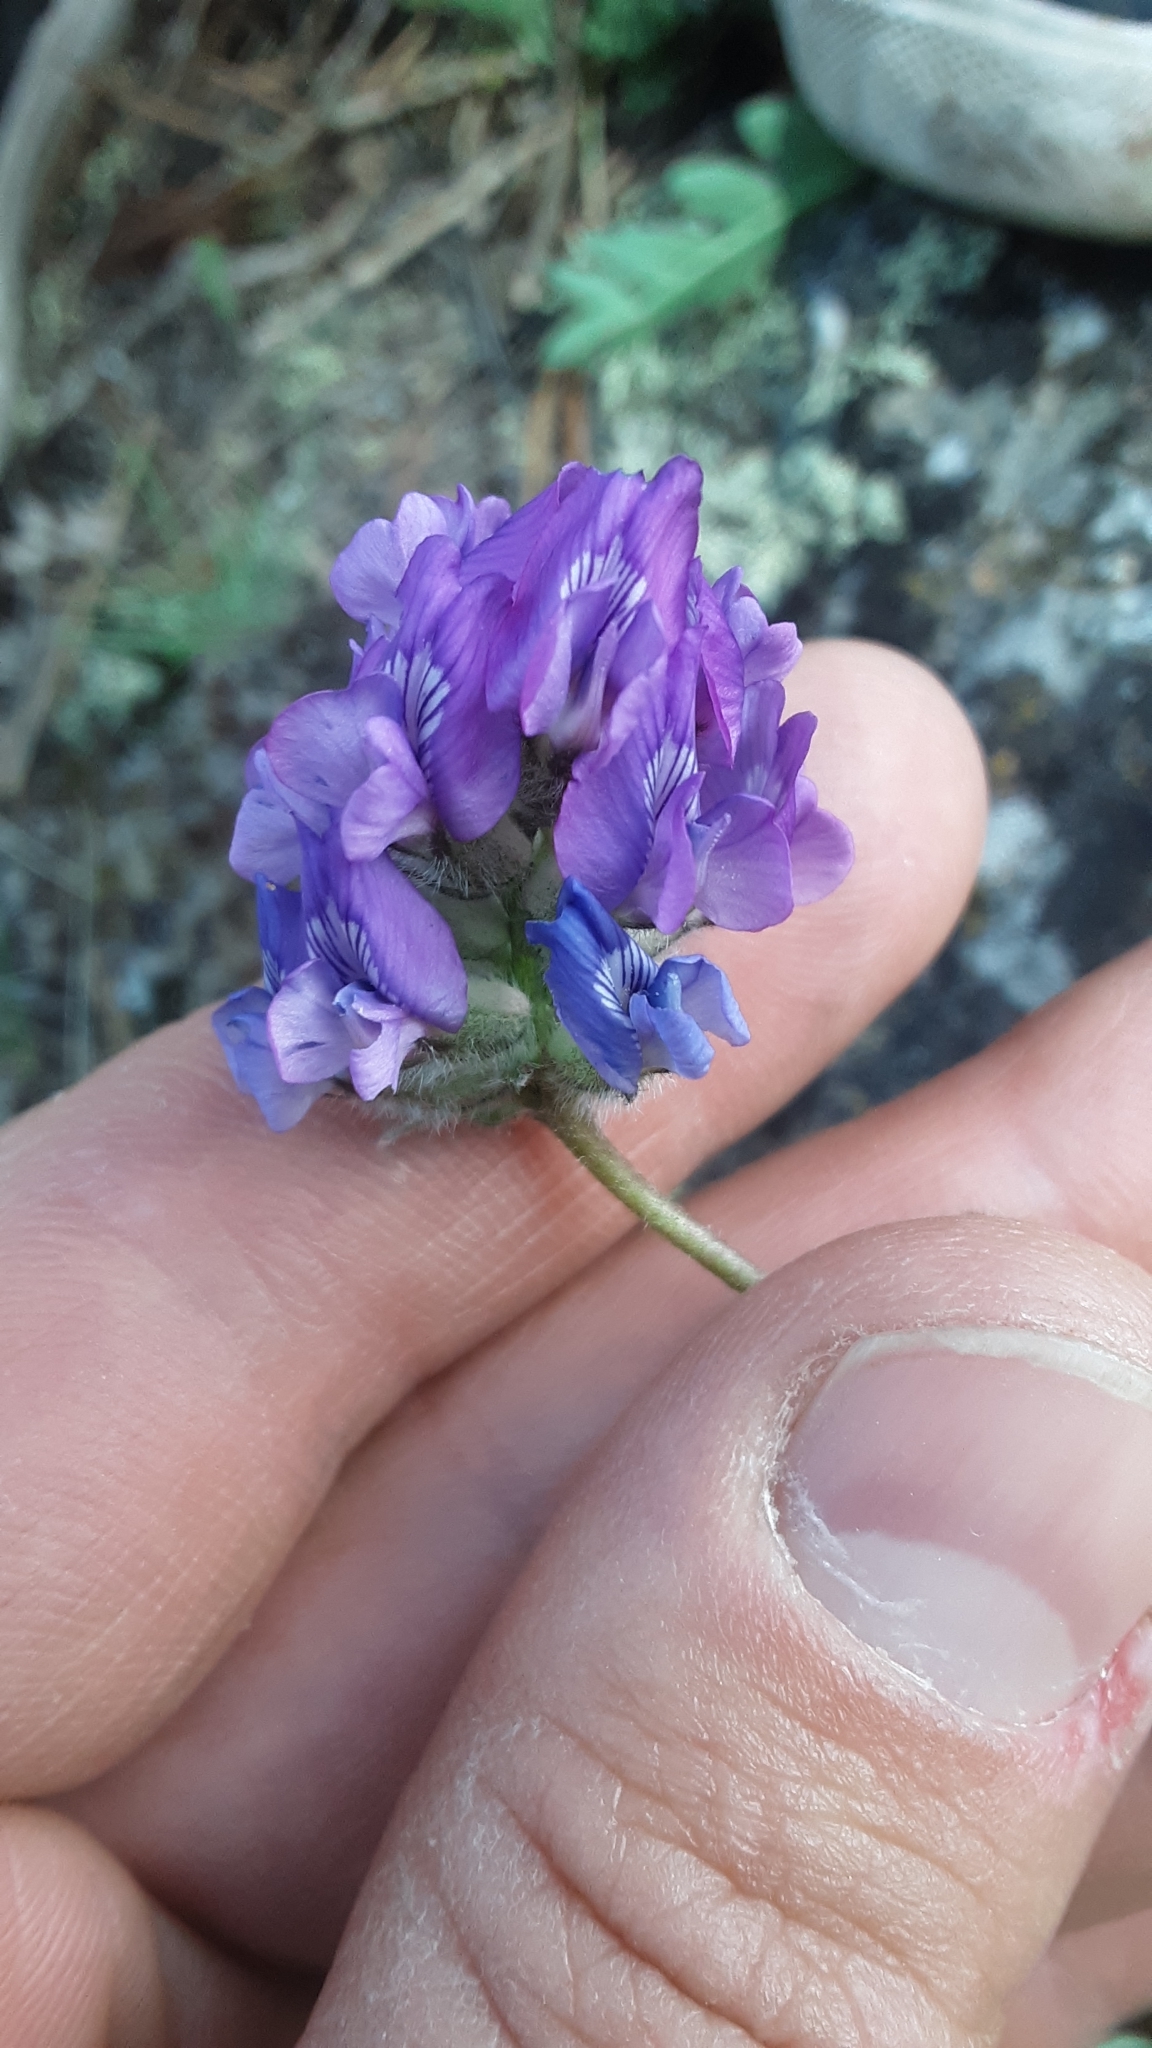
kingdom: Plantae
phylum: Tracheophyta
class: Magnoliopsida
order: Fabales
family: Fabaceae
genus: Oxytropis
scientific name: Oxytropis lagopus
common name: Hare's-foot locoweed
